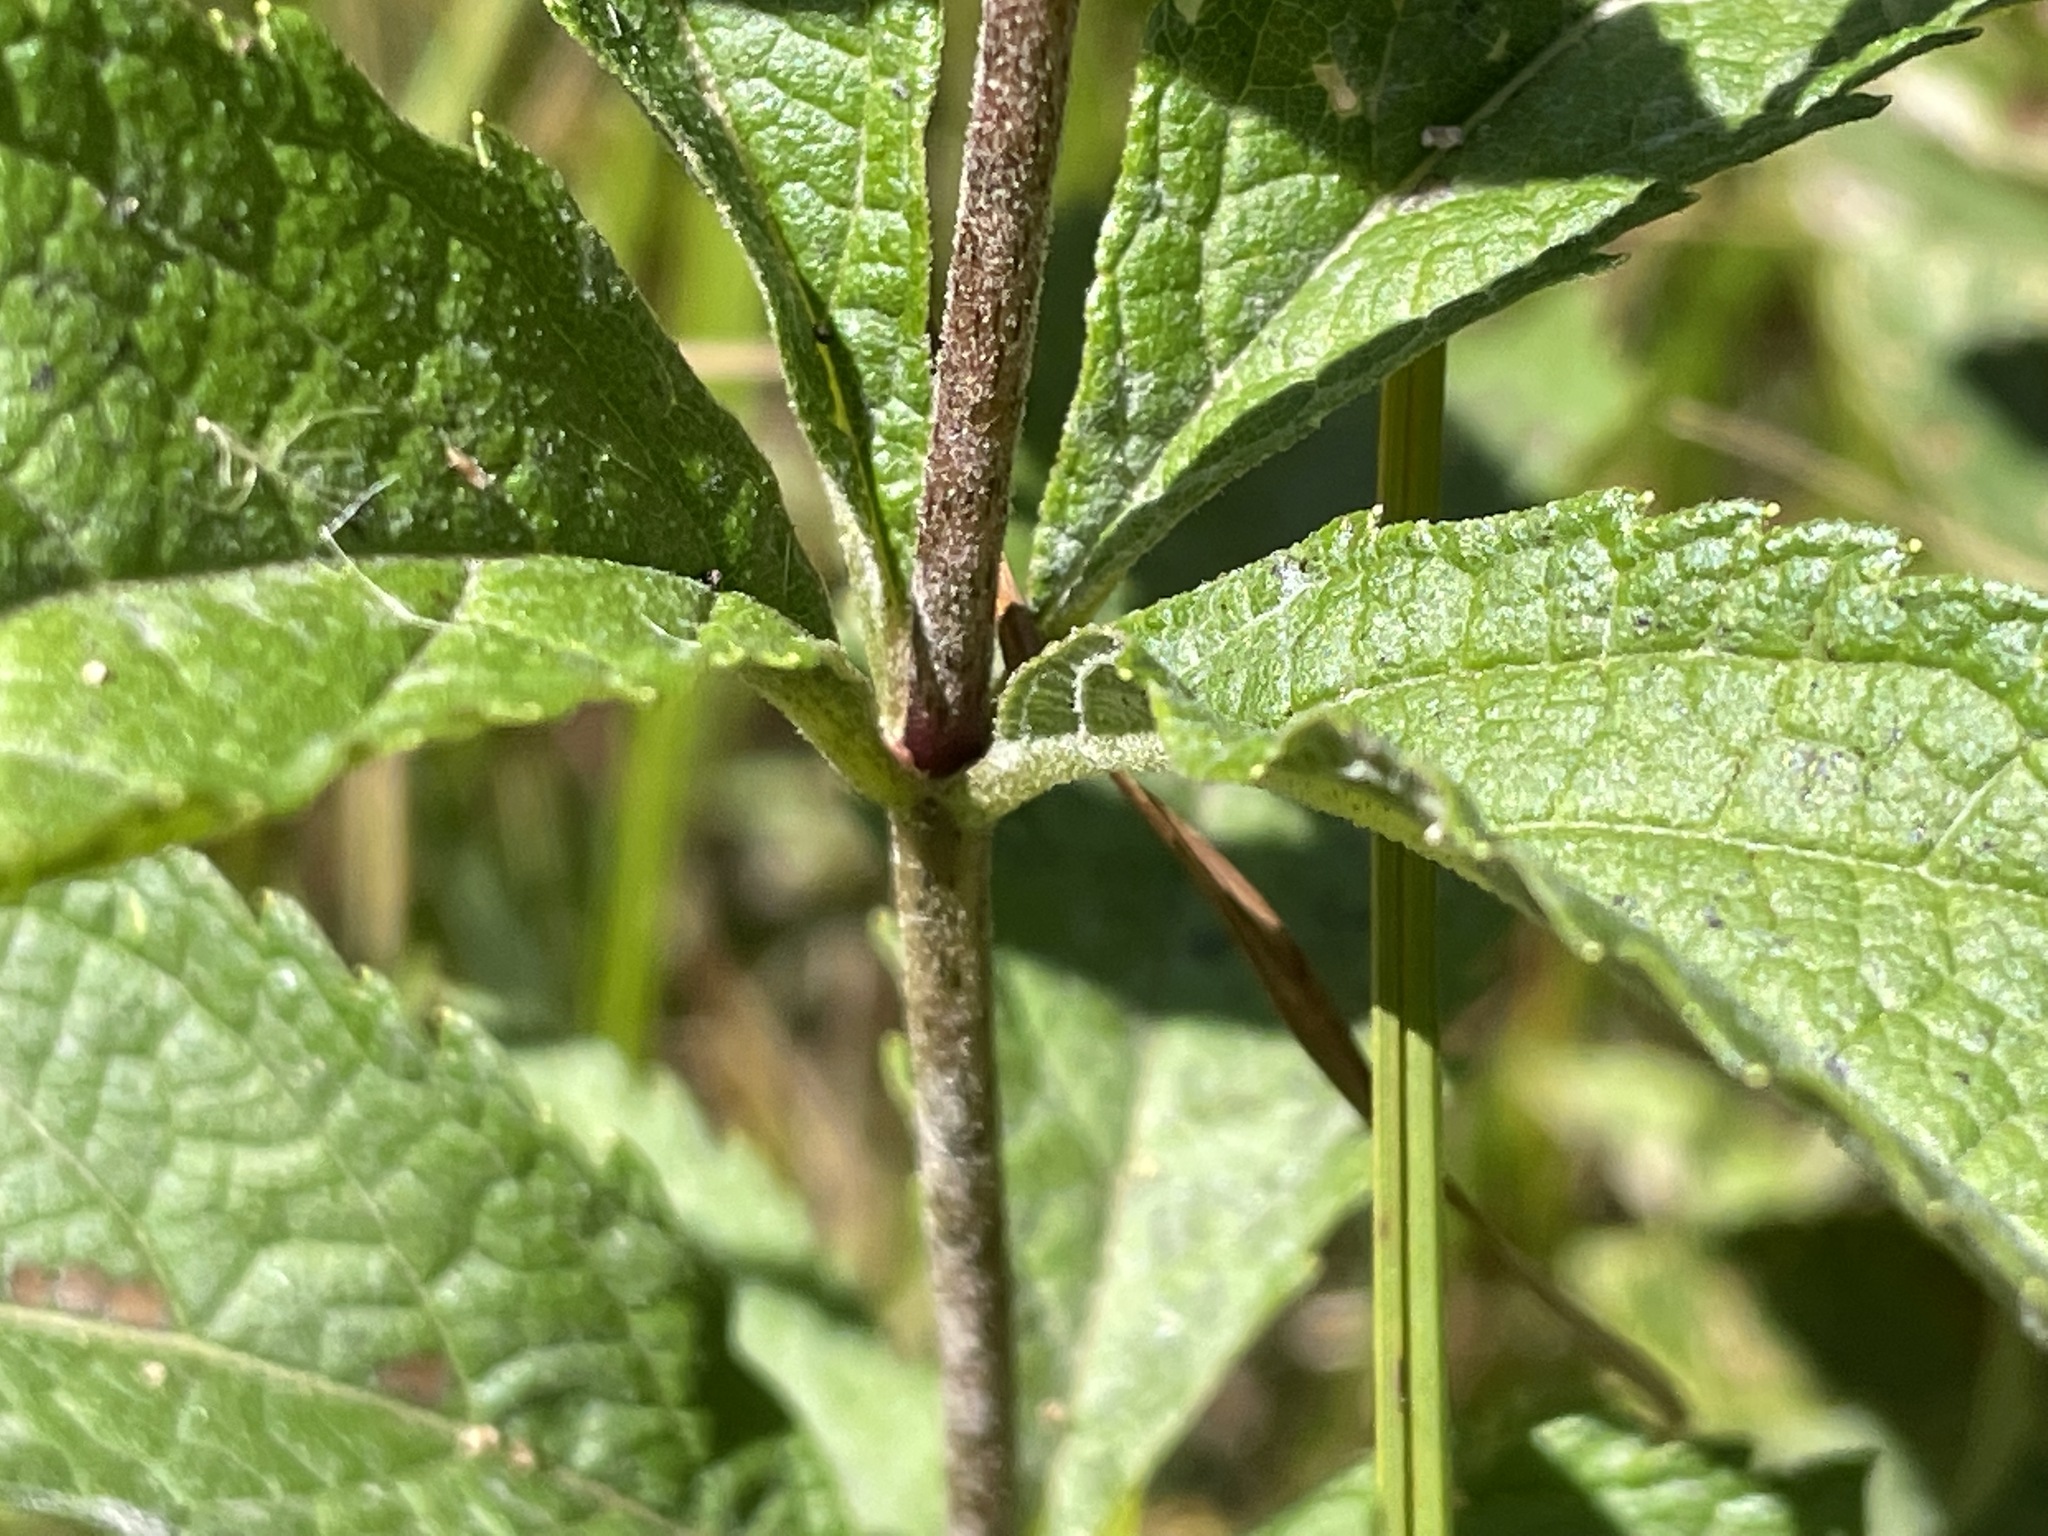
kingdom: Plantae
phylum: Tracheophyta
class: Magnoliopsida
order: Asterales
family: Asteraceae
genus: Eutrochium
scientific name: Eutrochium maculatum
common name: Spotted joe pye weed
